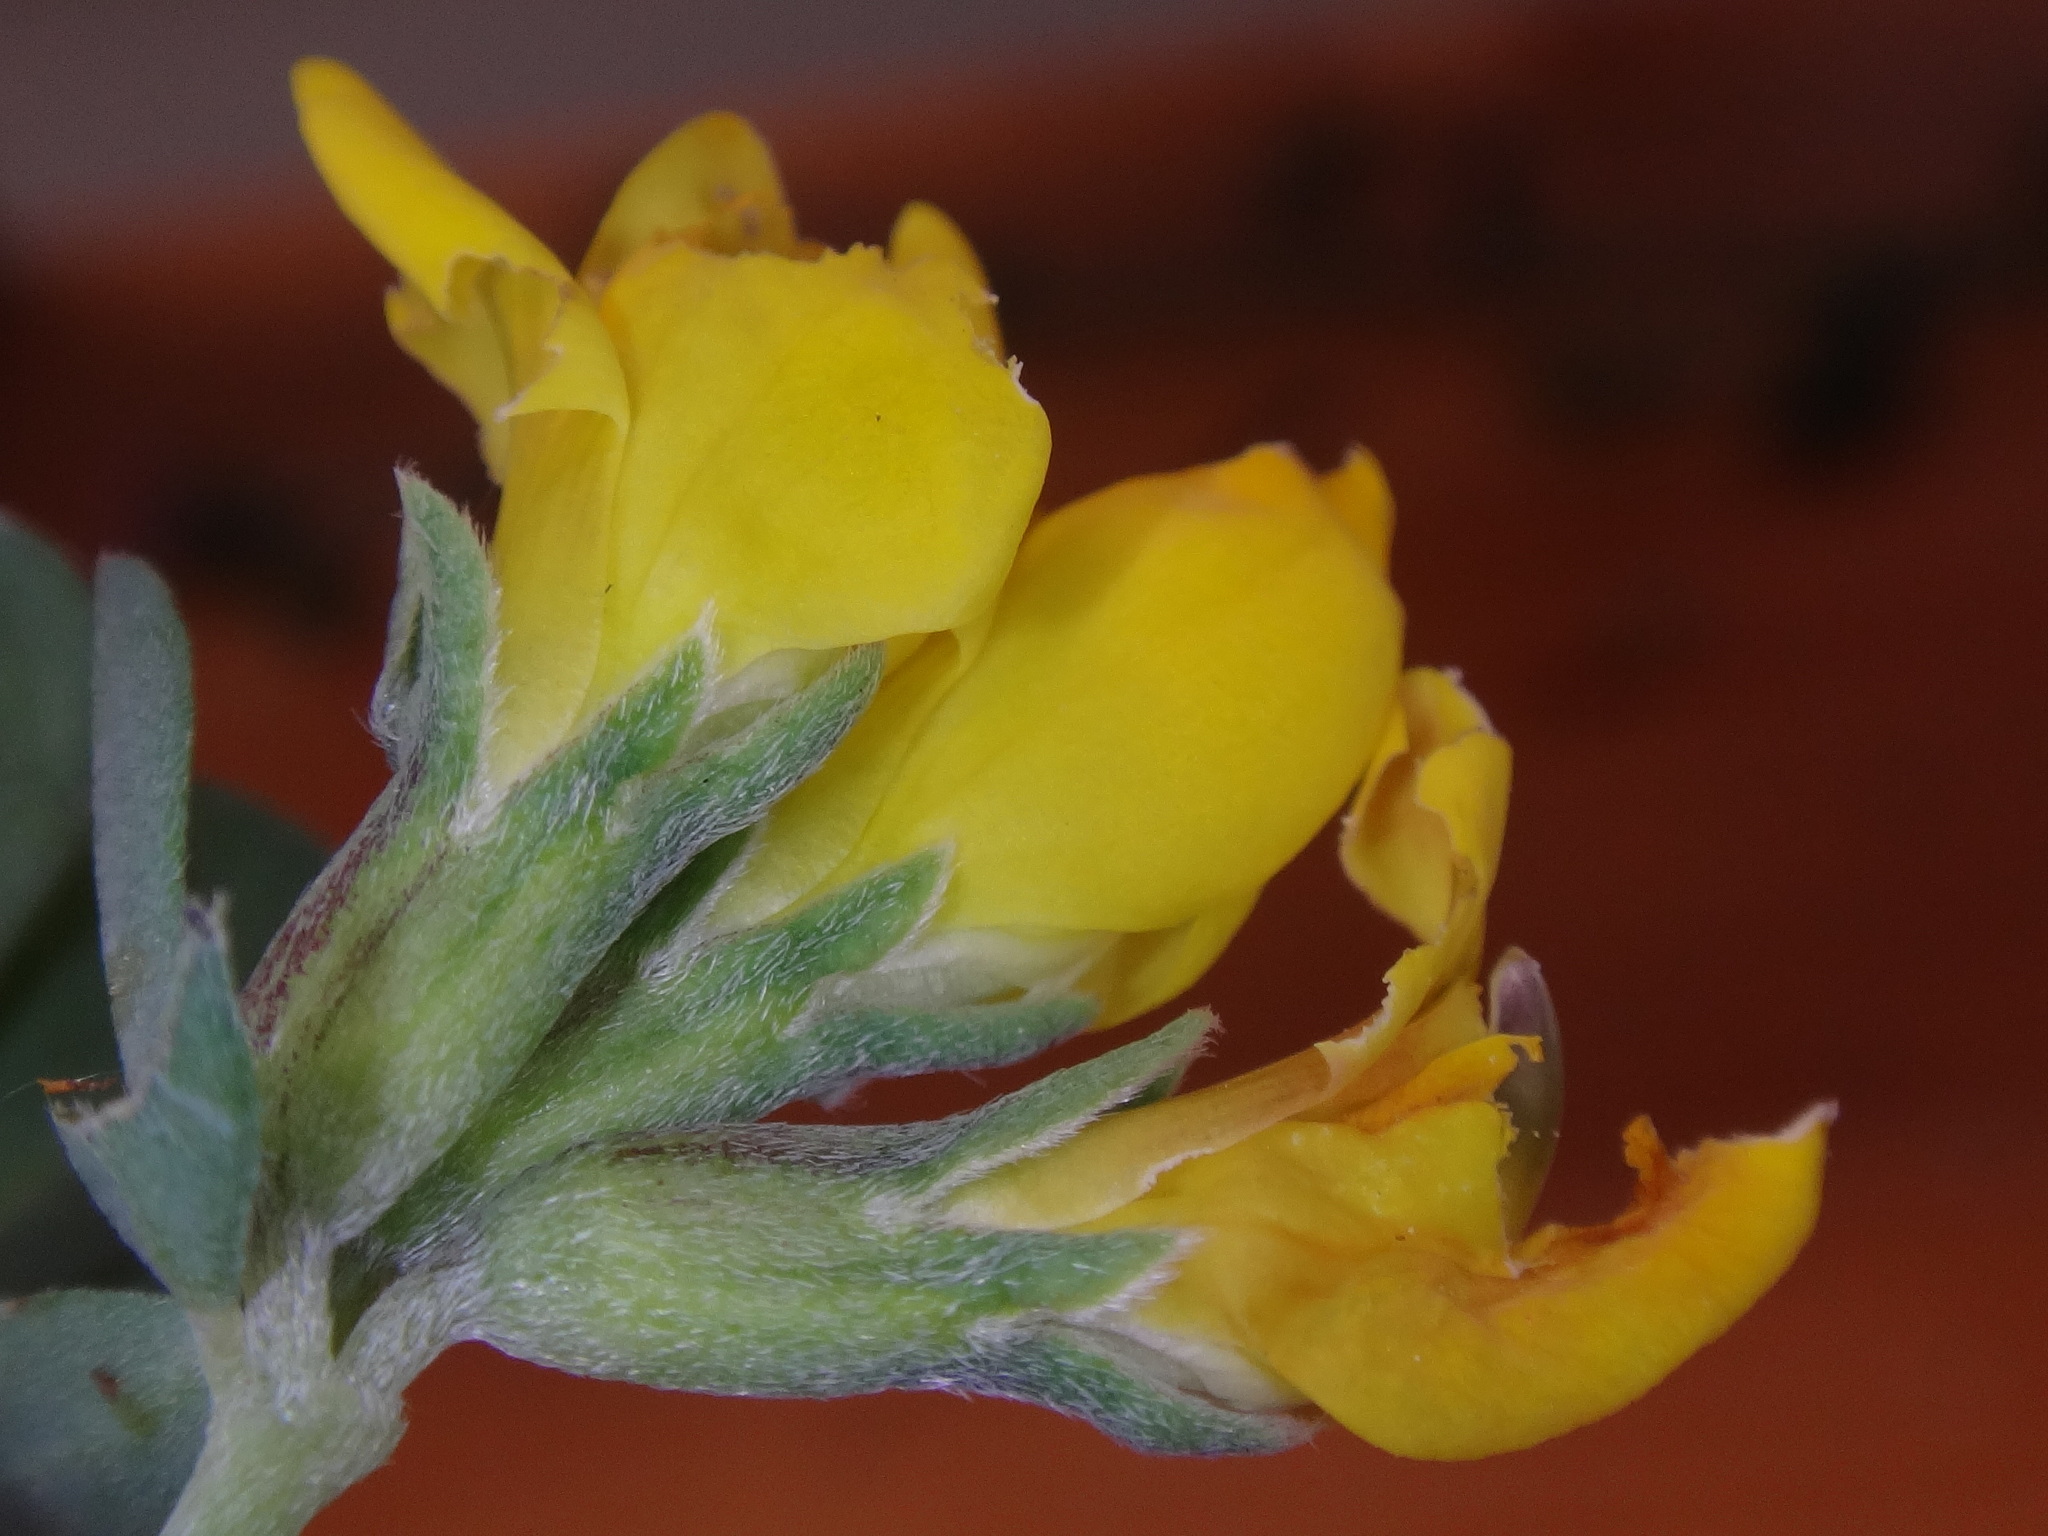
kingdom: Plantae
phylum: Tracheophyta
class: Magnoliopsida
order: Fabales
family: Fabaceae
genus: Lotus
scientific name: Lotus cytisoides
